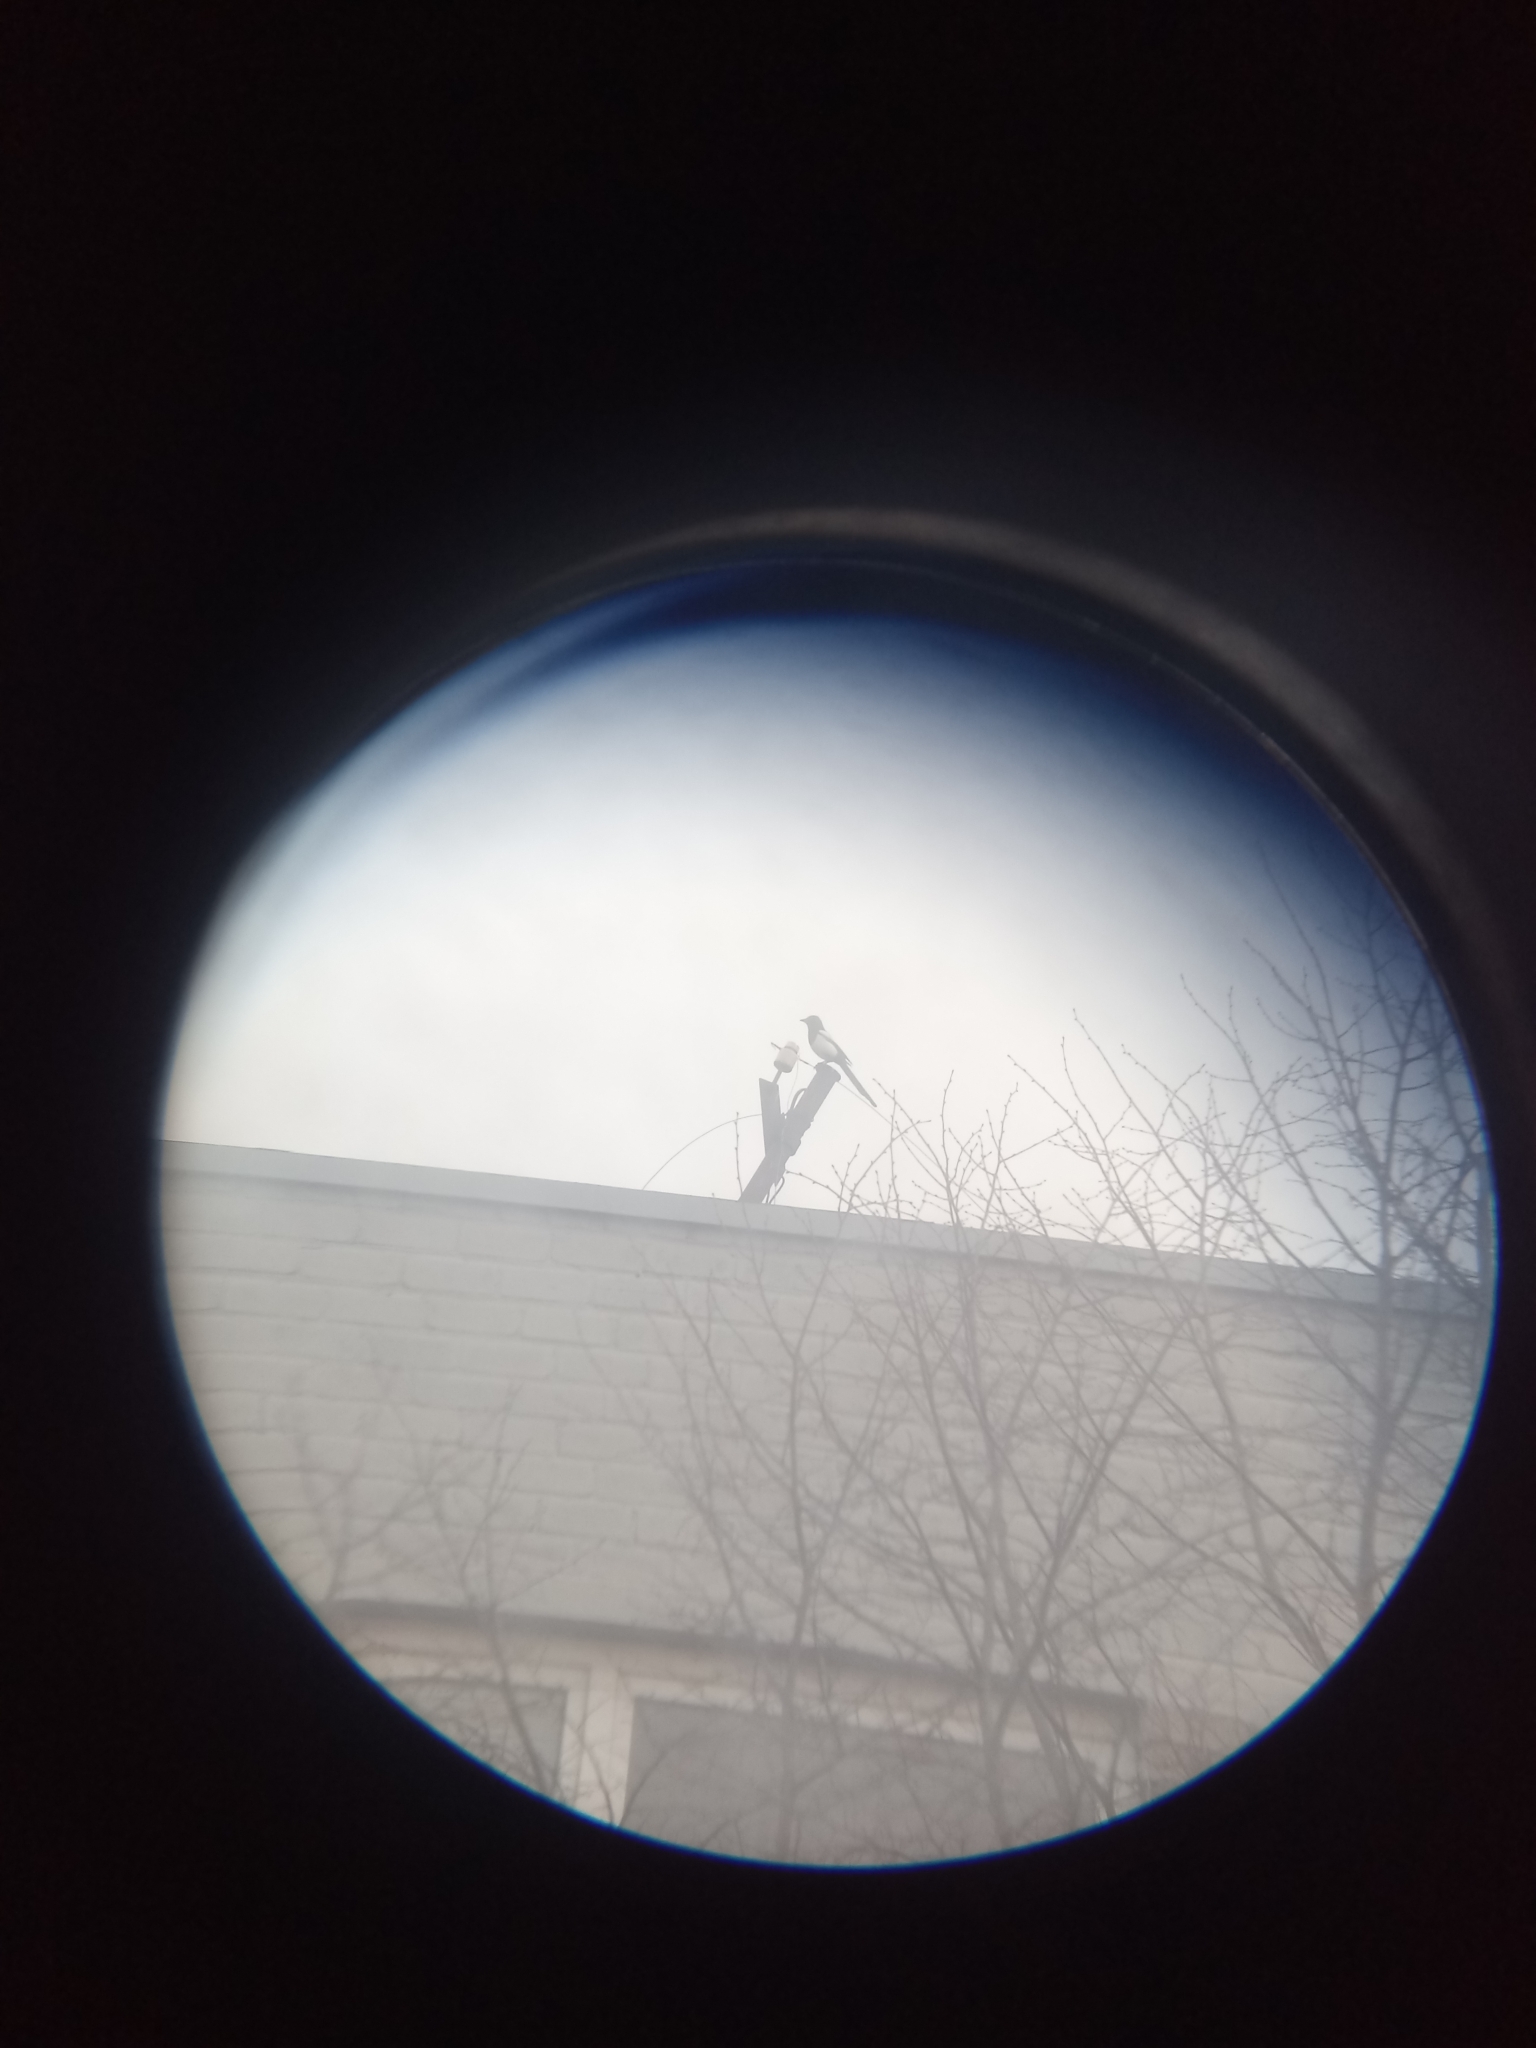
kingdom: Animalia
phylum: Chordata
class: Aves
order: Passeriformes
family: Corvidae
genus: Pica
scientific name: Pica pica
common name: Eurasian magpie
